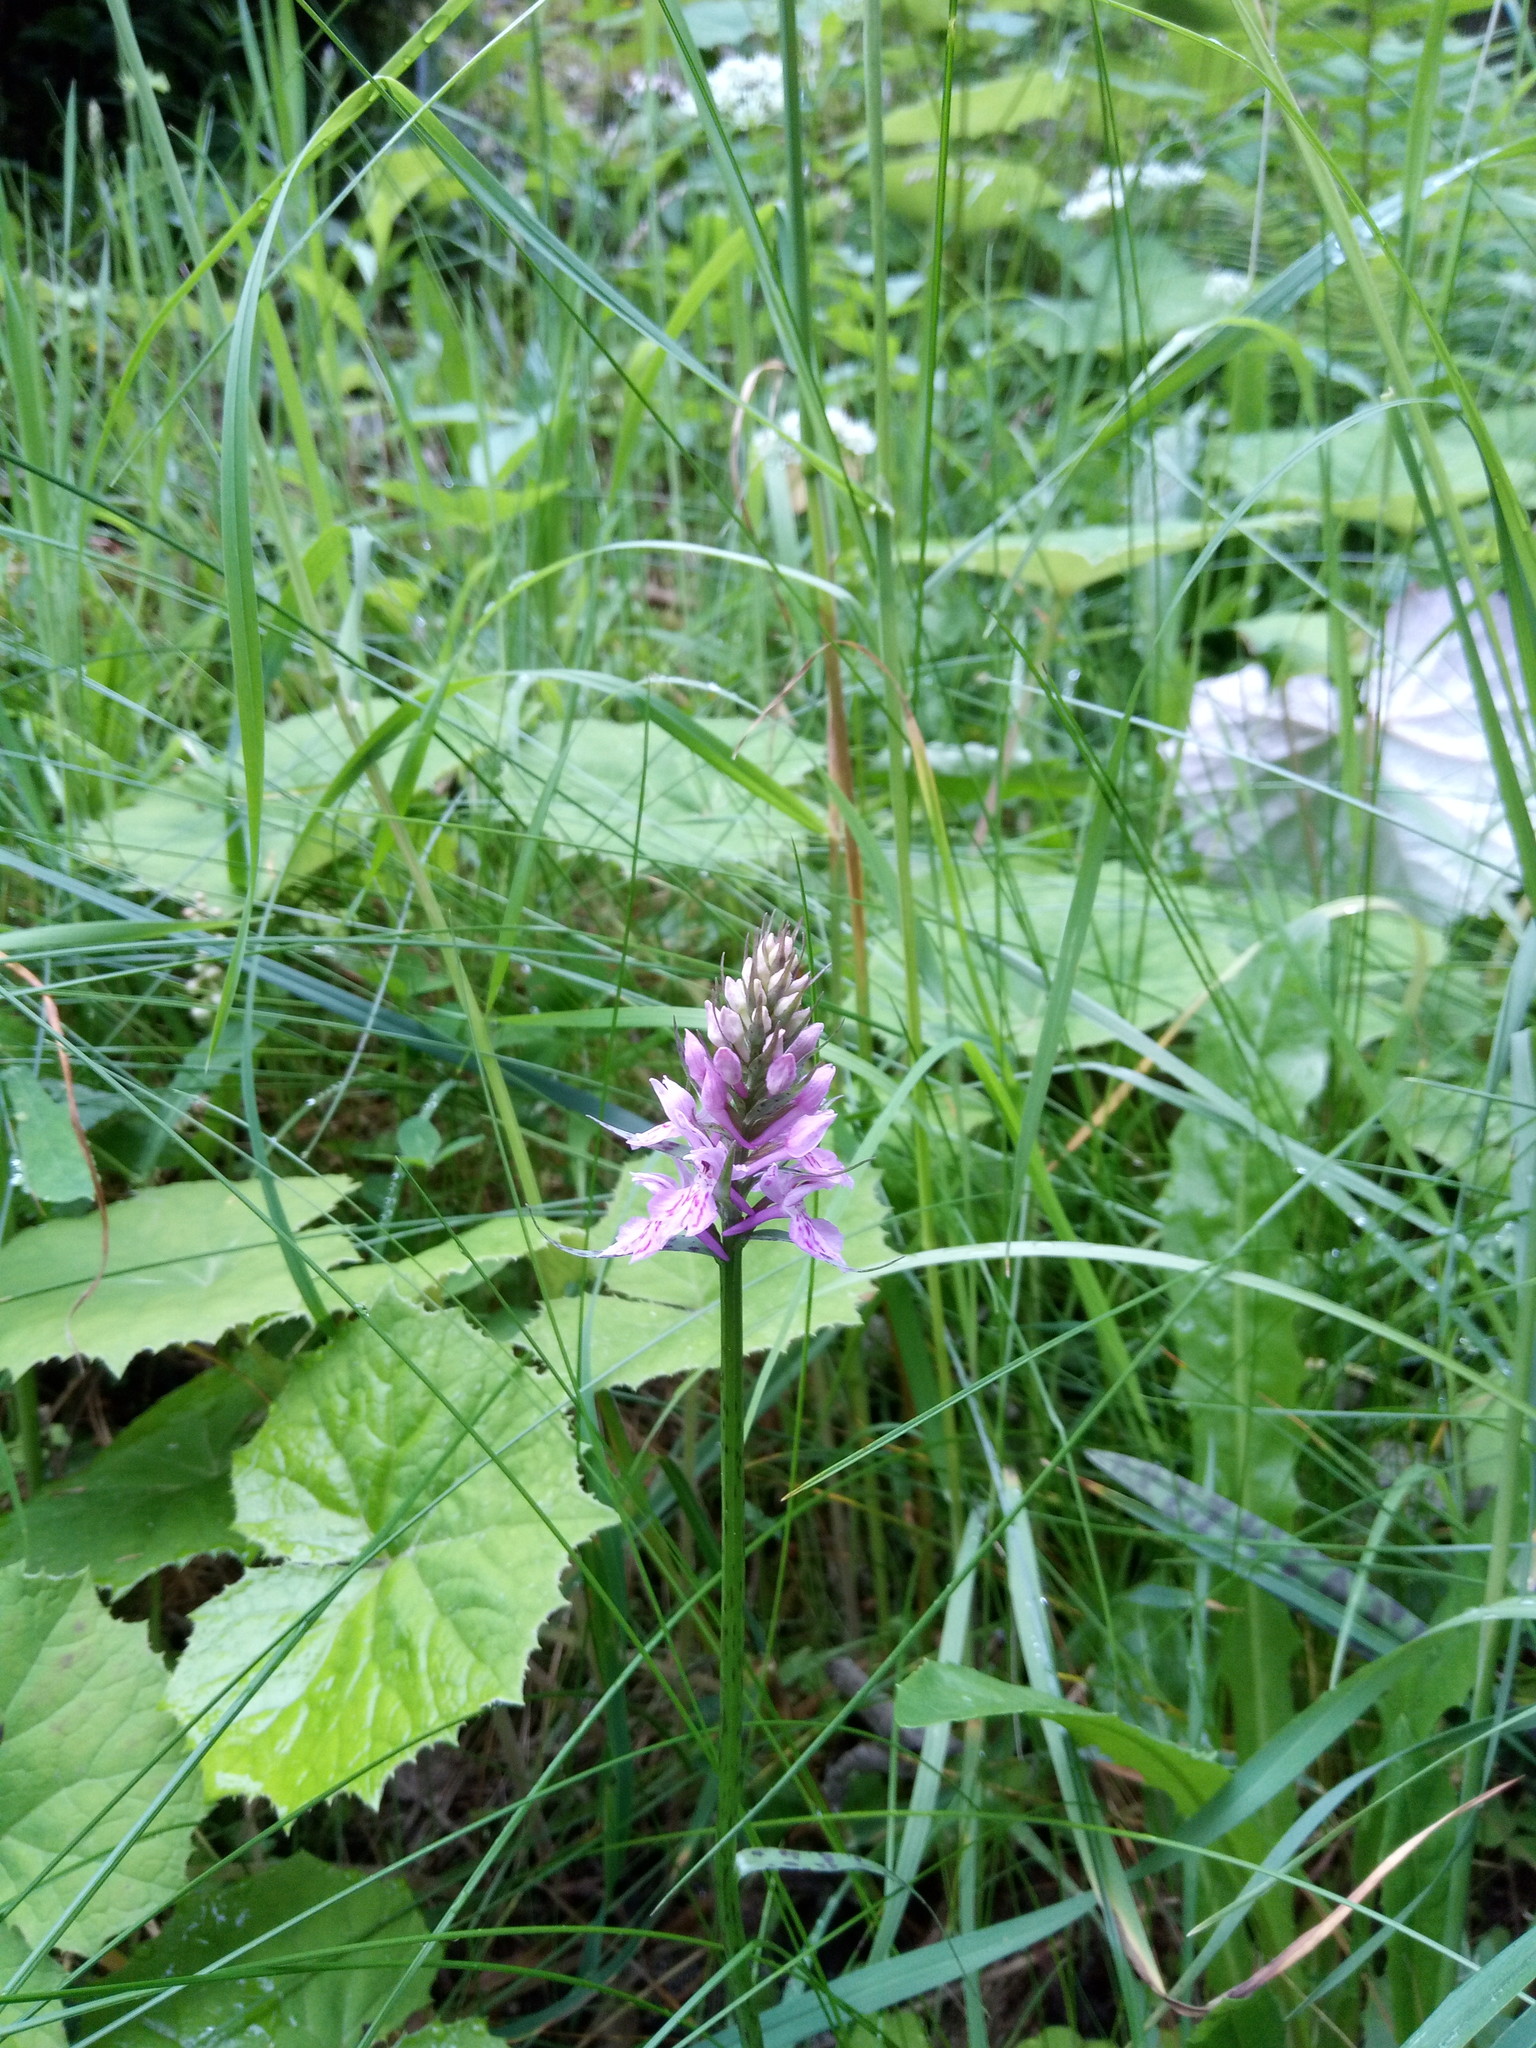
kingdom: Plantae
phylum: Tracheophyta
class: Liliopsida
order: Asparagales
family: Orchidaceae
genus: Dactylorhiza
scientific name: Dactylorhiza maculata
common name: Heath spotted-orchid
